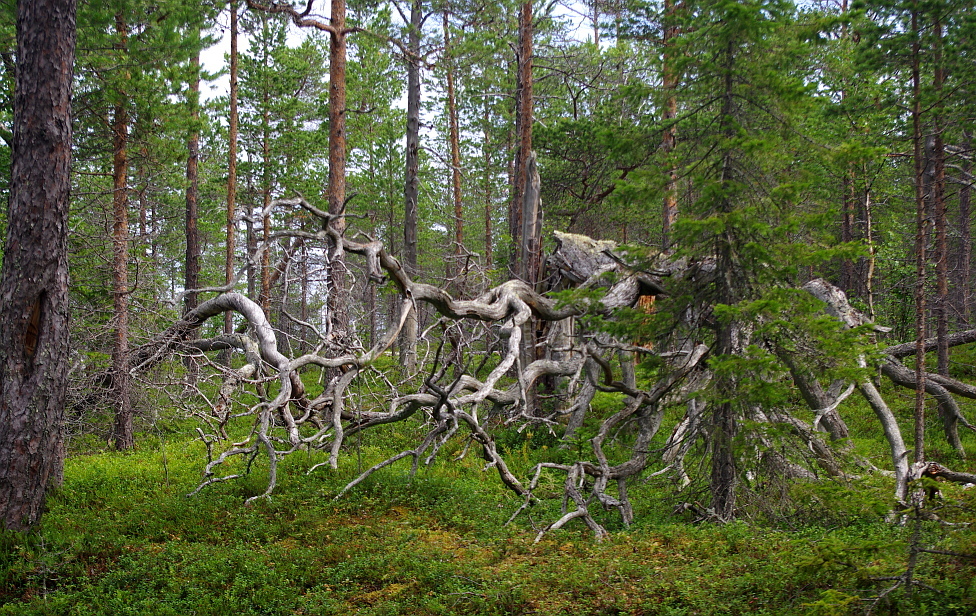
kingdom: Plantae
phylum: Tracheophyta
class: Pinopsida
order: Pinales
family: Pinaceae
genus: Pinus
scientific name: Pinus sylvestris
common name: Scots pine
